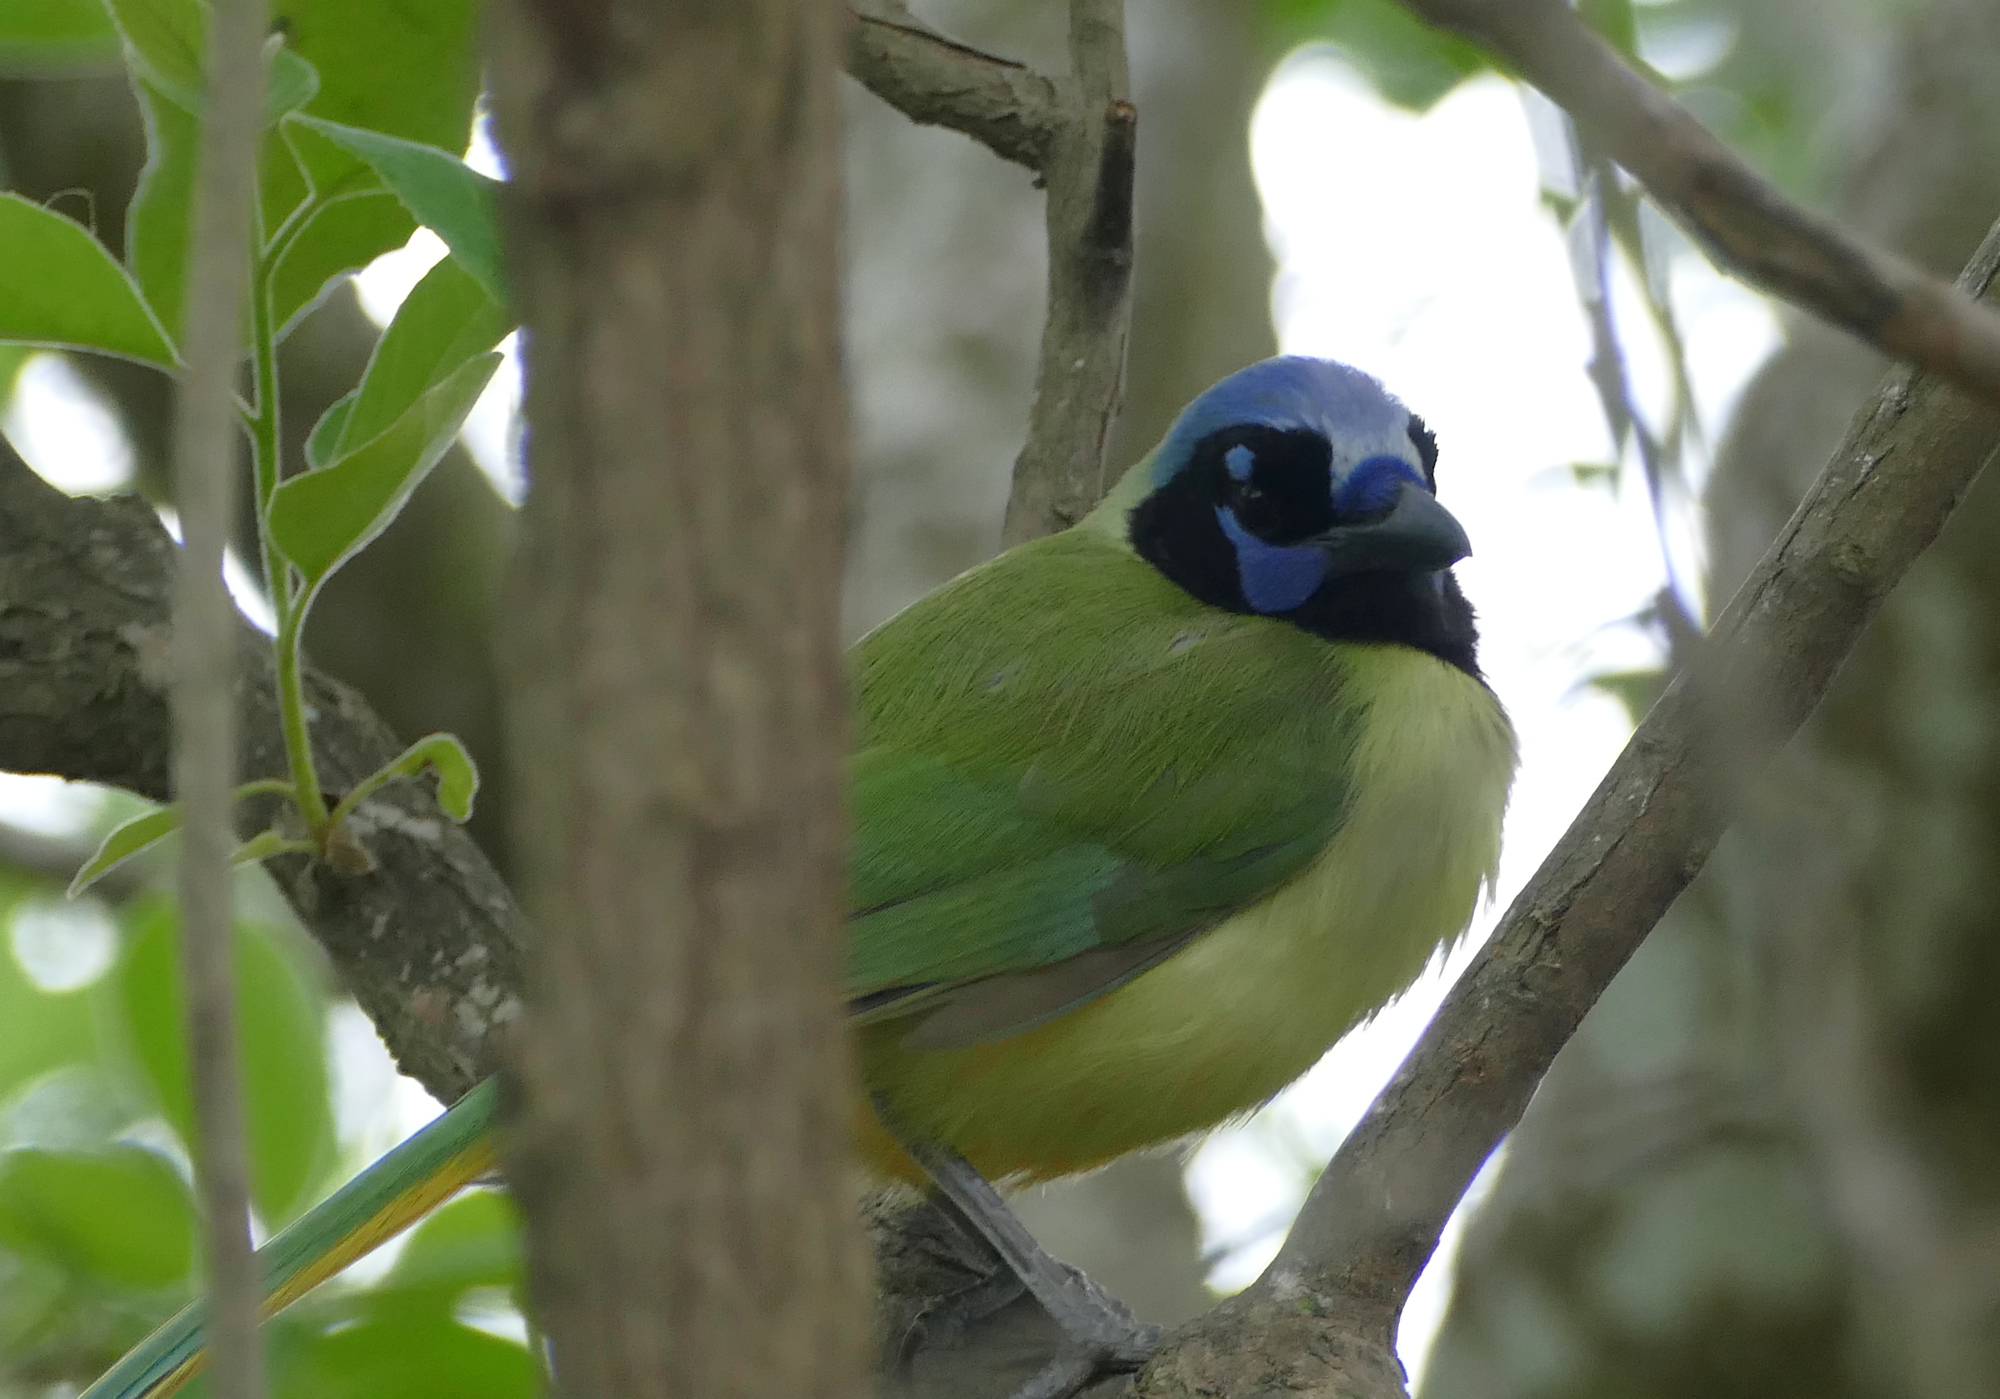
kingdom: Animalia
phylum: Chordata
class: Aves
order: Passeriformes
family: Corvidae
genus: Cyanocorax
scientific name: Cyanocorax yncas
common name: Green jay
